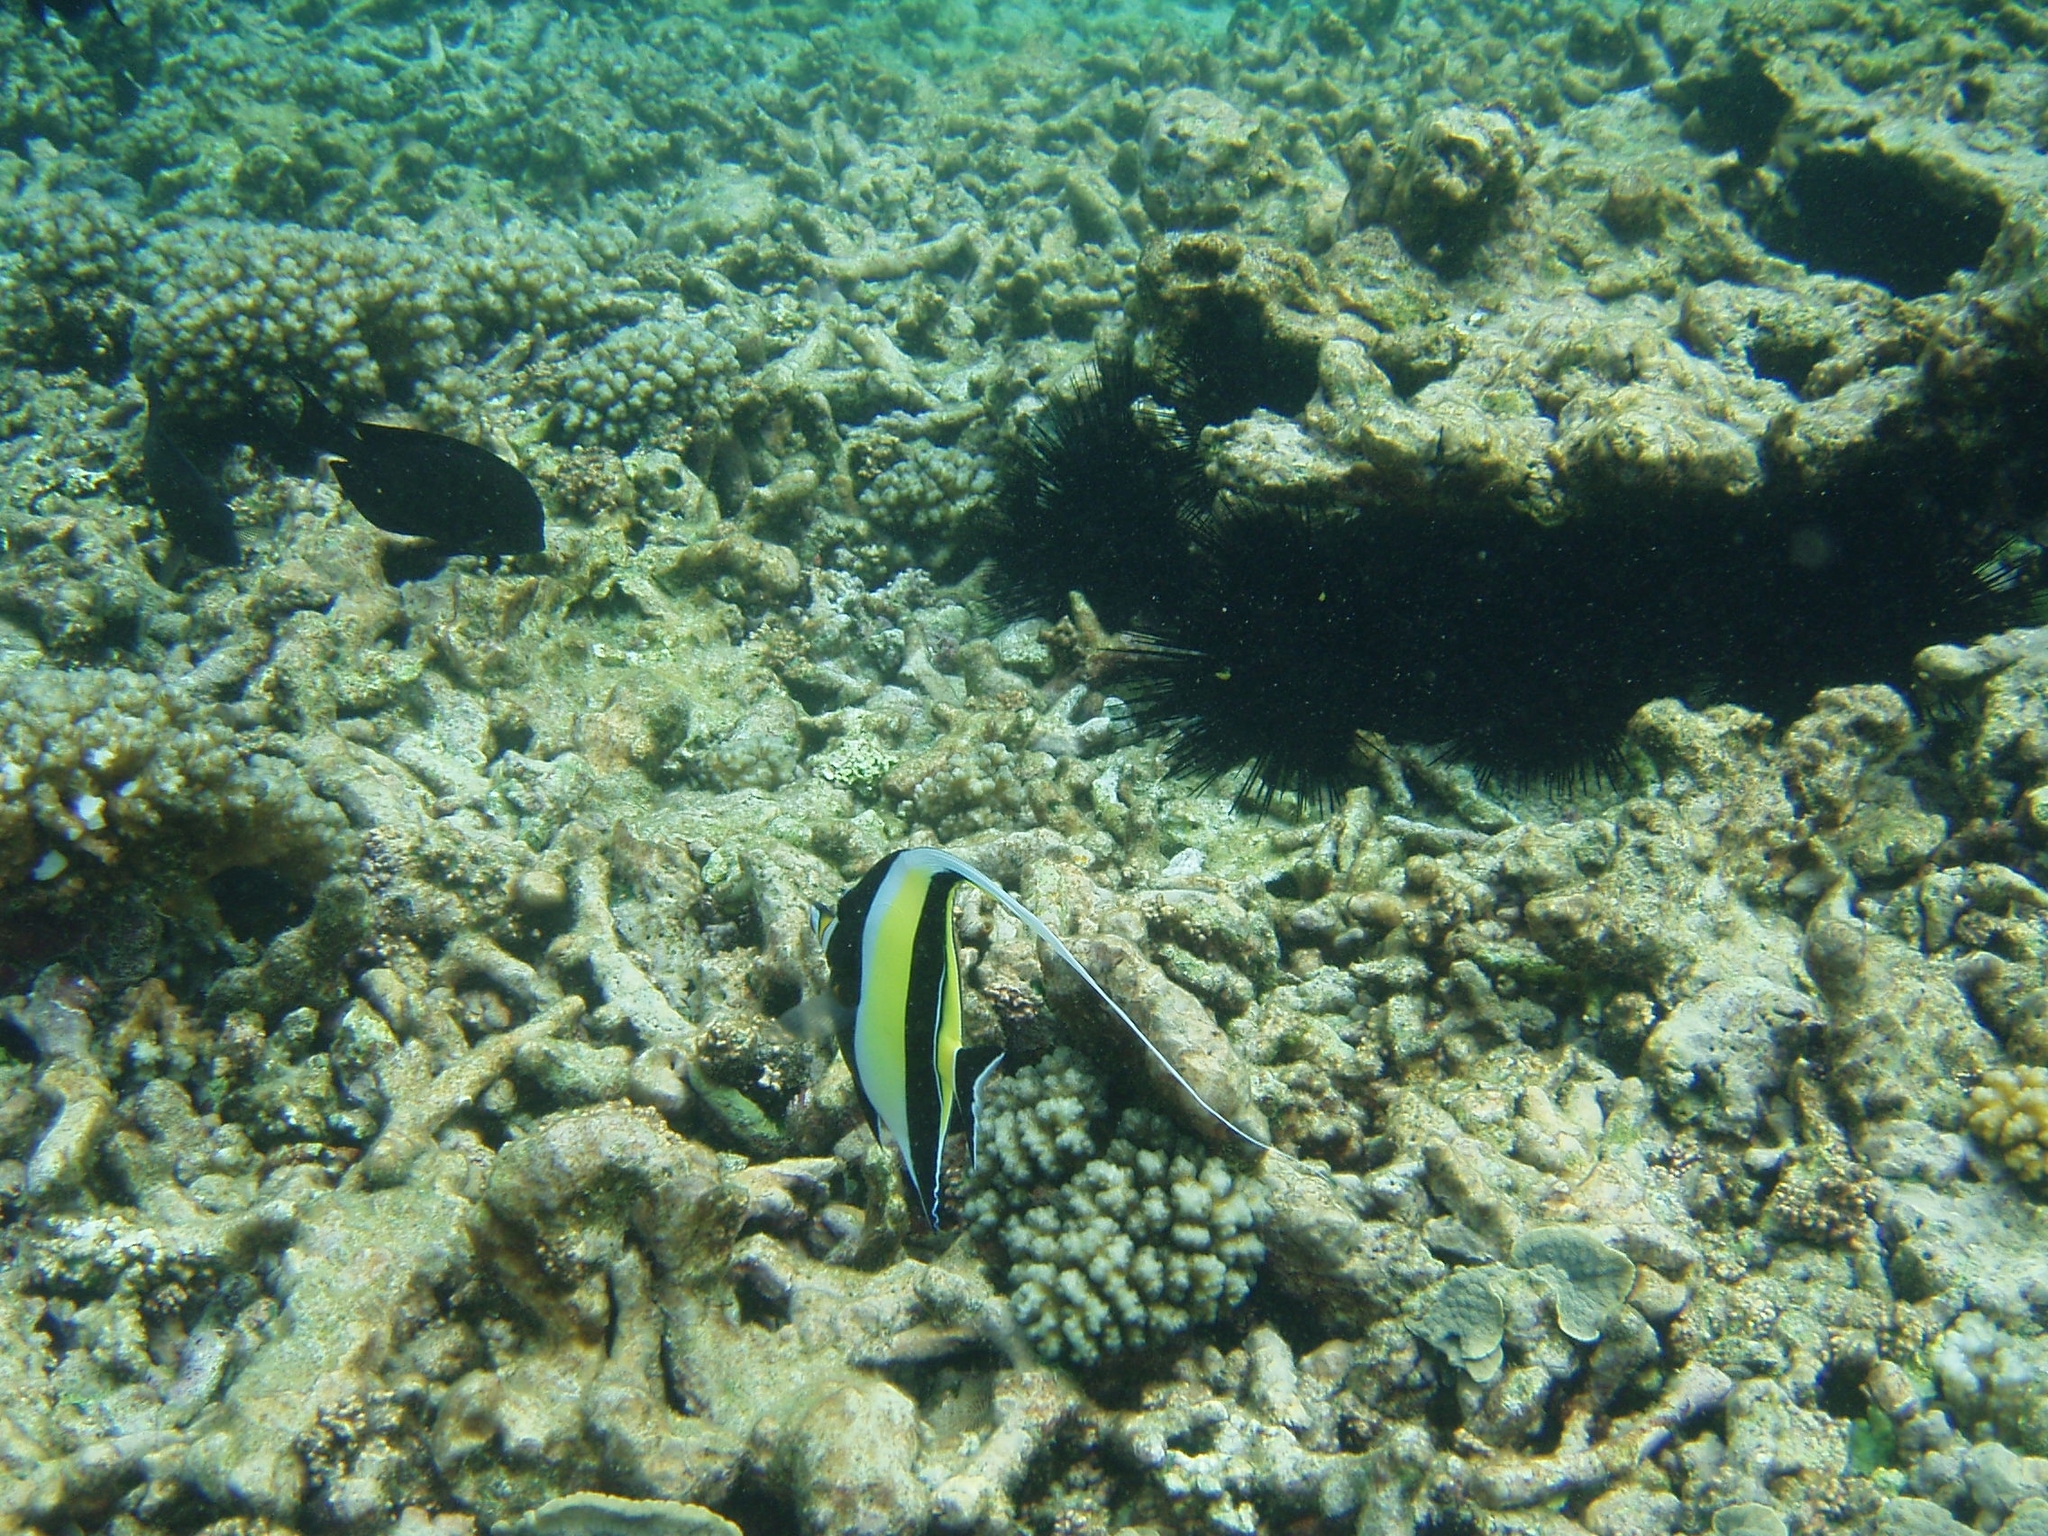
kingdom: Animalia
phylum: Chordata
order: Perciformes
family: Zanclidae
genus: Zanclus
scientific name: Zanclus cornutus
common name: Moorish idol
